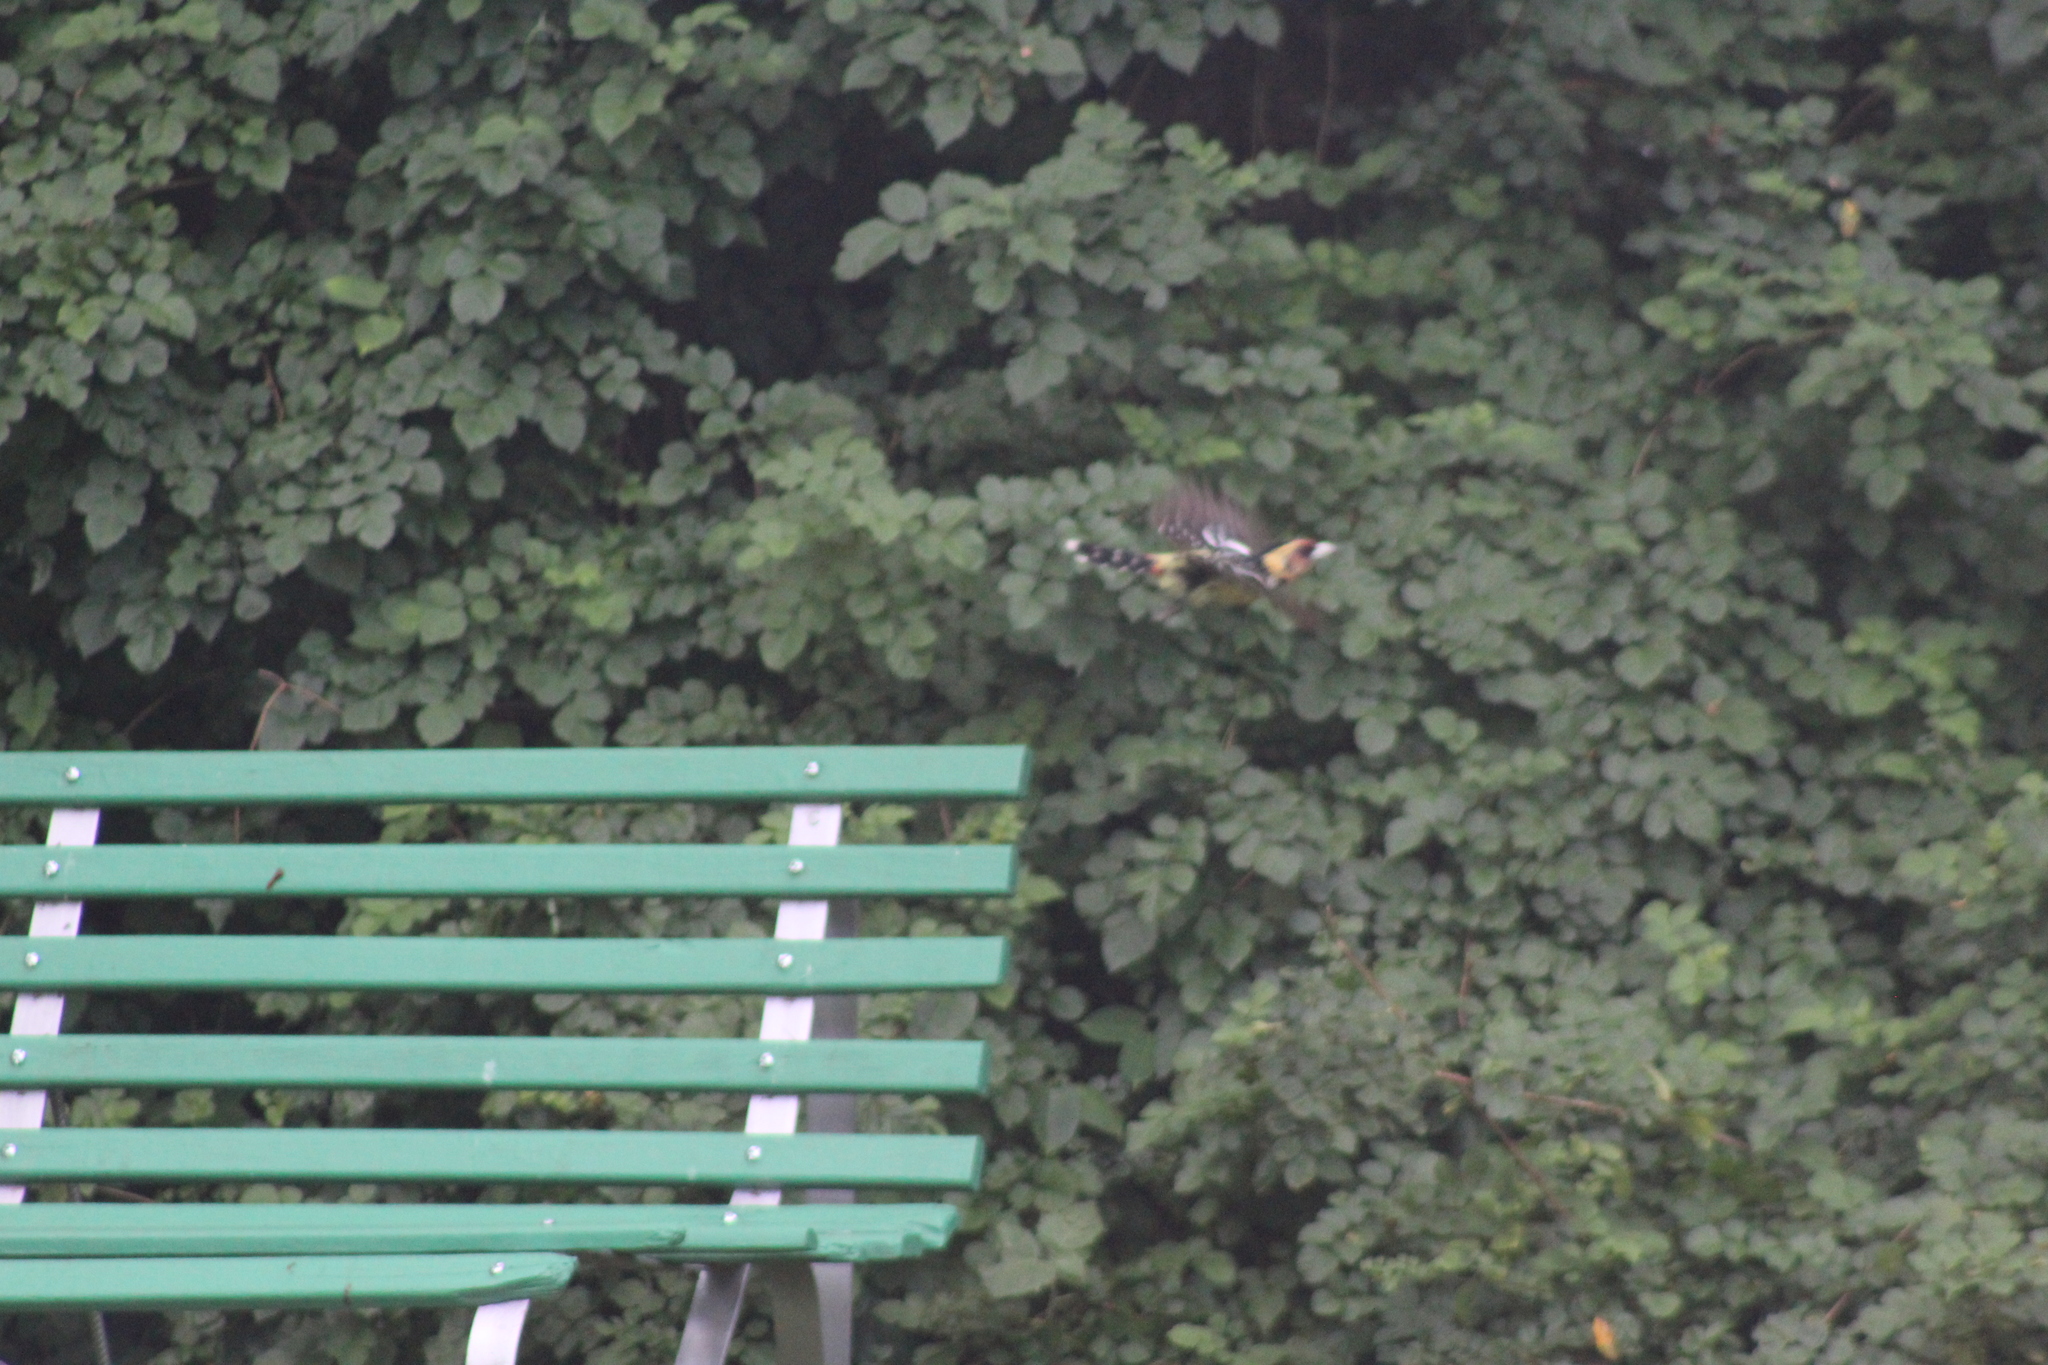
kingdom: Animalia
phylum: Chordata
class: Aves
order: Piciformes
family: Lybiidae
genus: Trachyphonus
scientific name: Trachyphonus vaillantii
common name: Crested barbet
